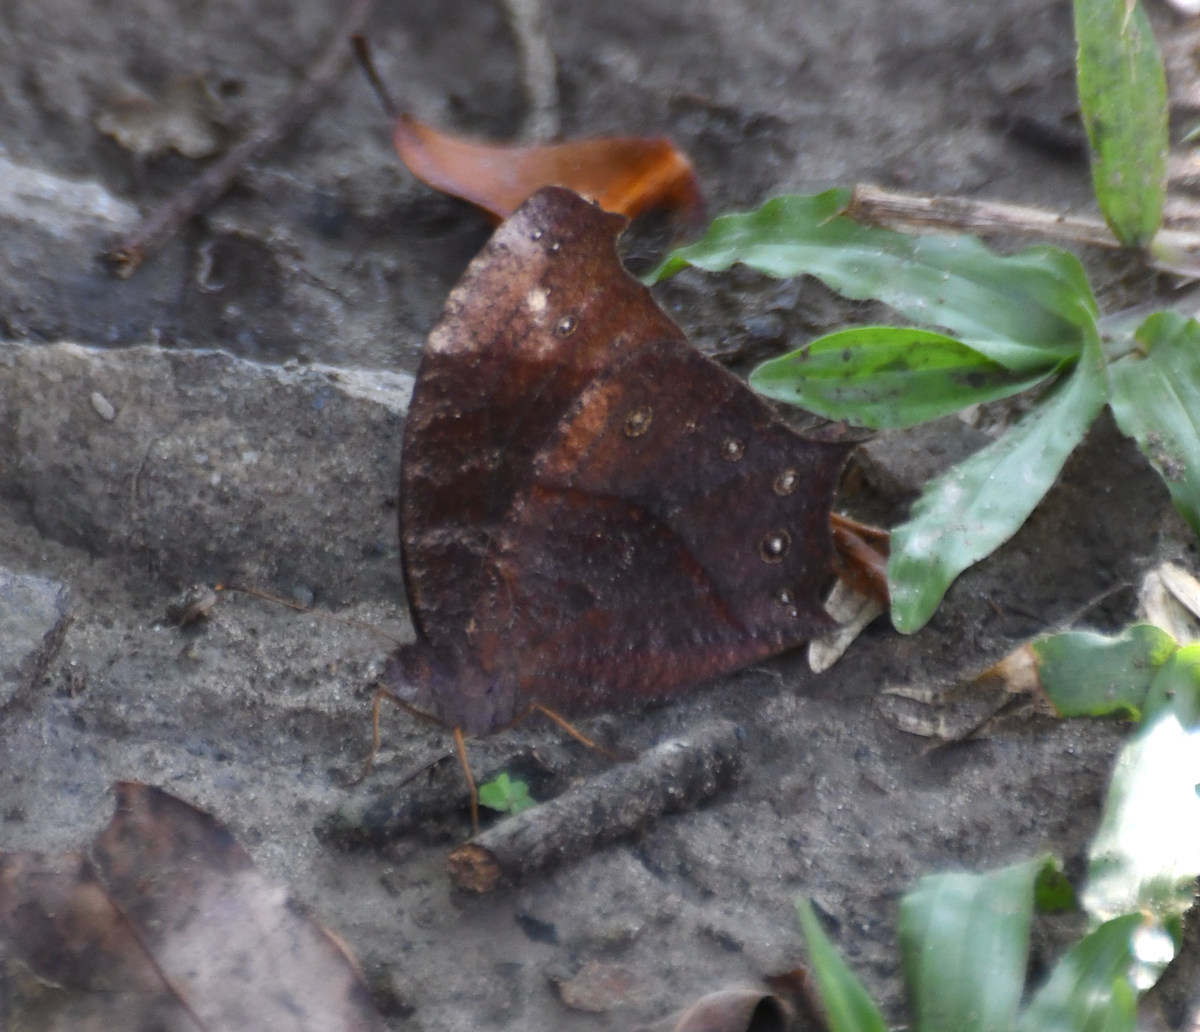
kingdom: Animalia
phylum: Arthropoda
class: Insecta
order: Lepidoptera
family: Nymphalidae
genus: Melanitis
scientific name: Melanitis phedima
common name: Dark evening brown
